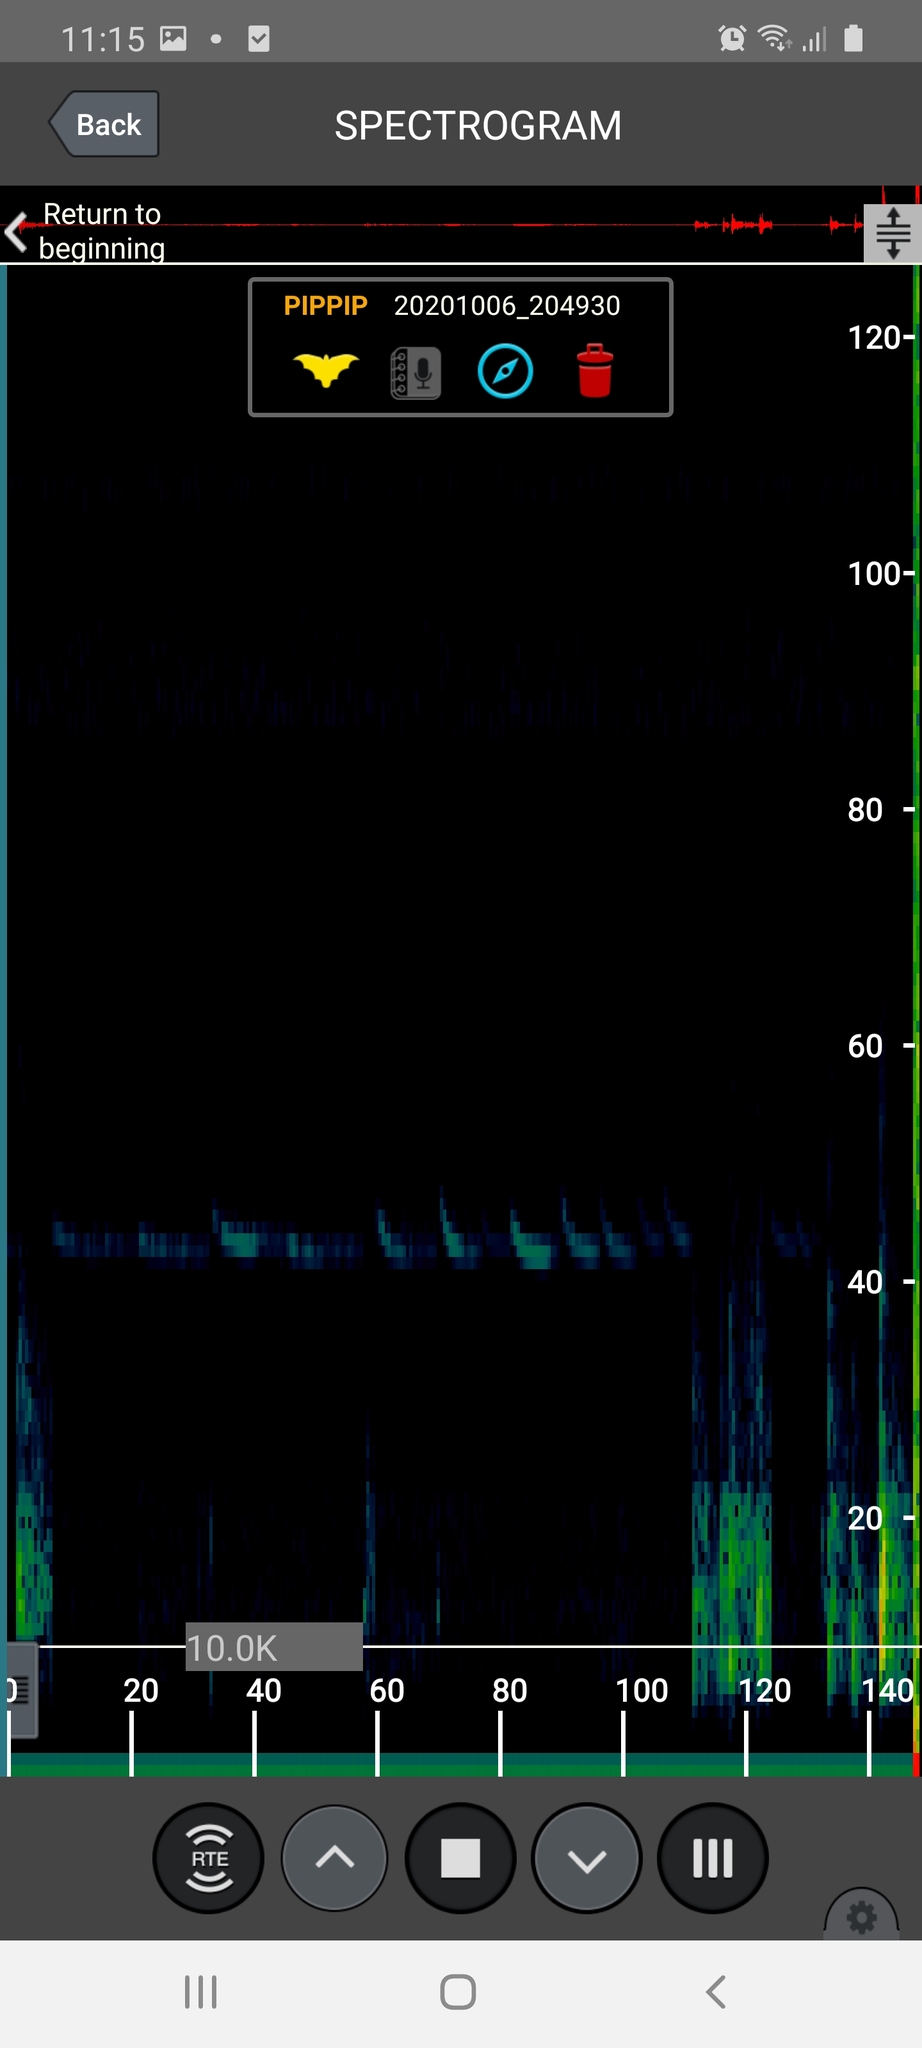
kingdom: Animalia
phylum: Chordata
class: Mammalia
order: Chiroptera
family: Vespertilionidae
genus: Pipistrellus
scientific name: Pipistrellus pipistrellus
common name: Common pipistrelle
